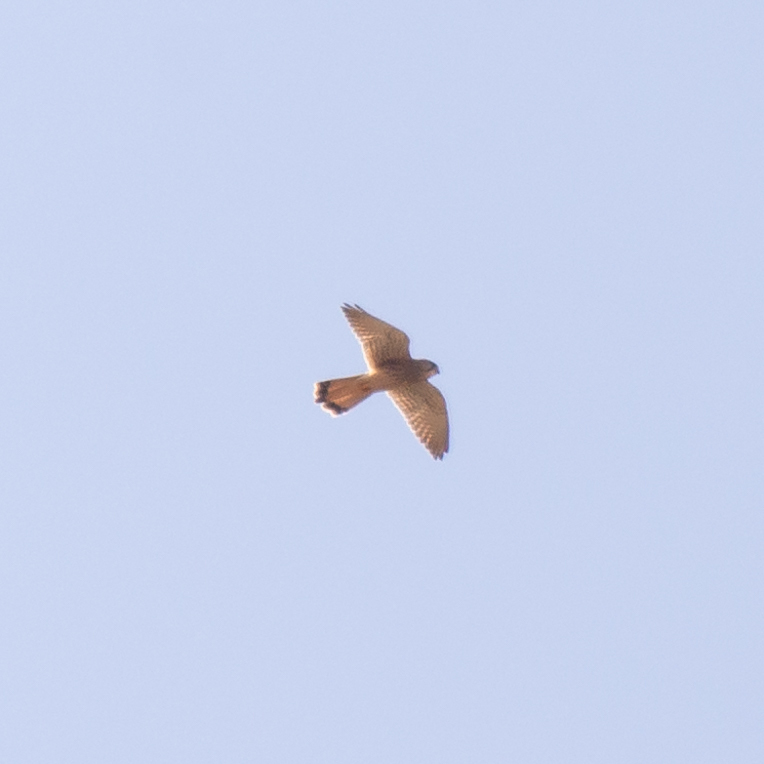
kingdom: Animalia
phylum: Chordata
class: Aves
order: Falconiformes
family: Falconidae
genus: Falco
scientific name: Falco tinnunculus
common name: Common kestrel
